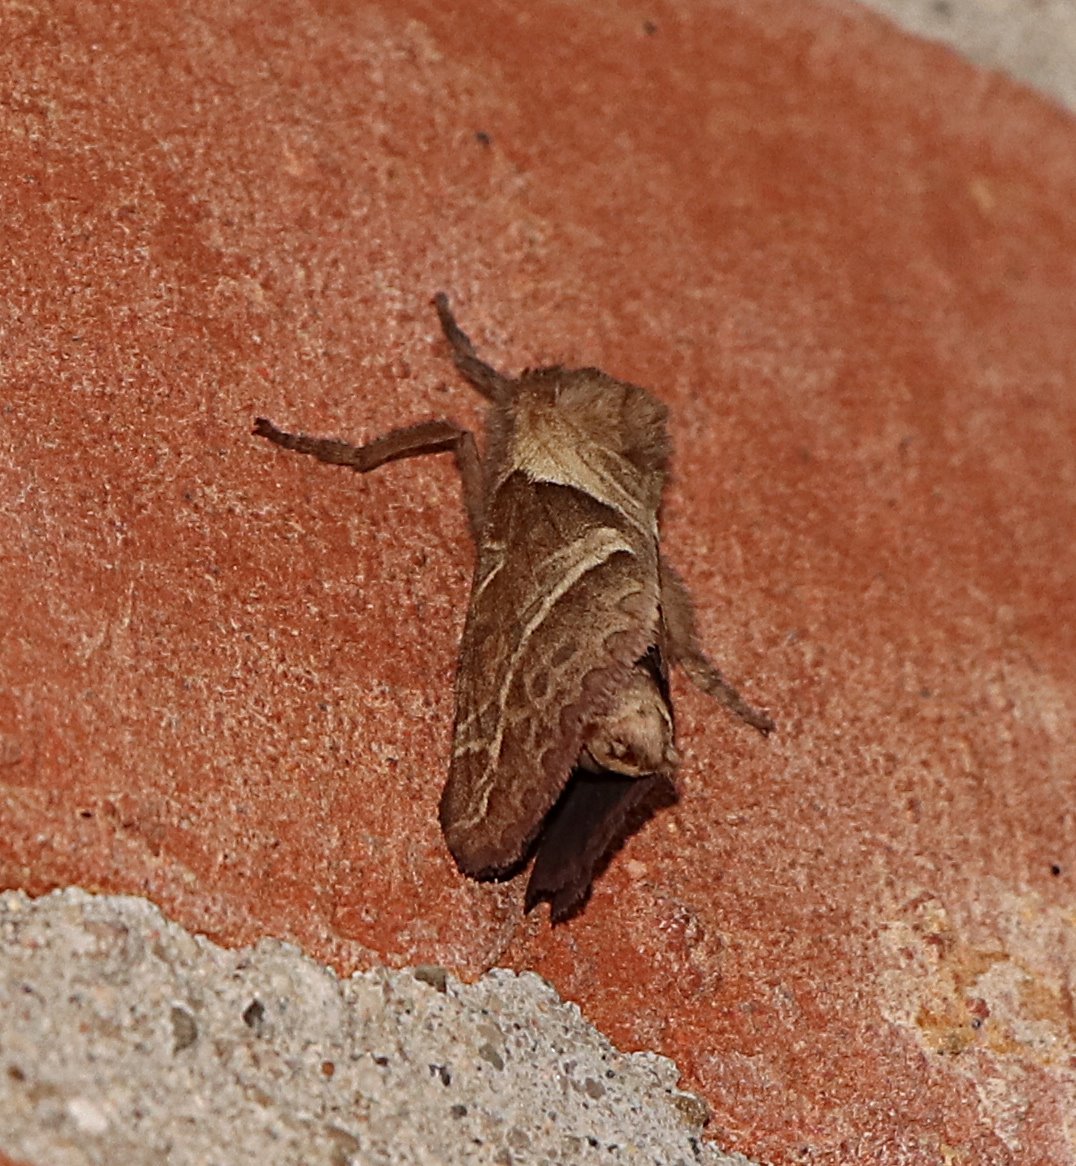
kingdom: Animalia
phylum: Arthropoda
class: Insecta
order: Lepidoptera
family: Hepialidae
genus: Triodia
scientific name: Triodia sylvina
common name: Orange swift
